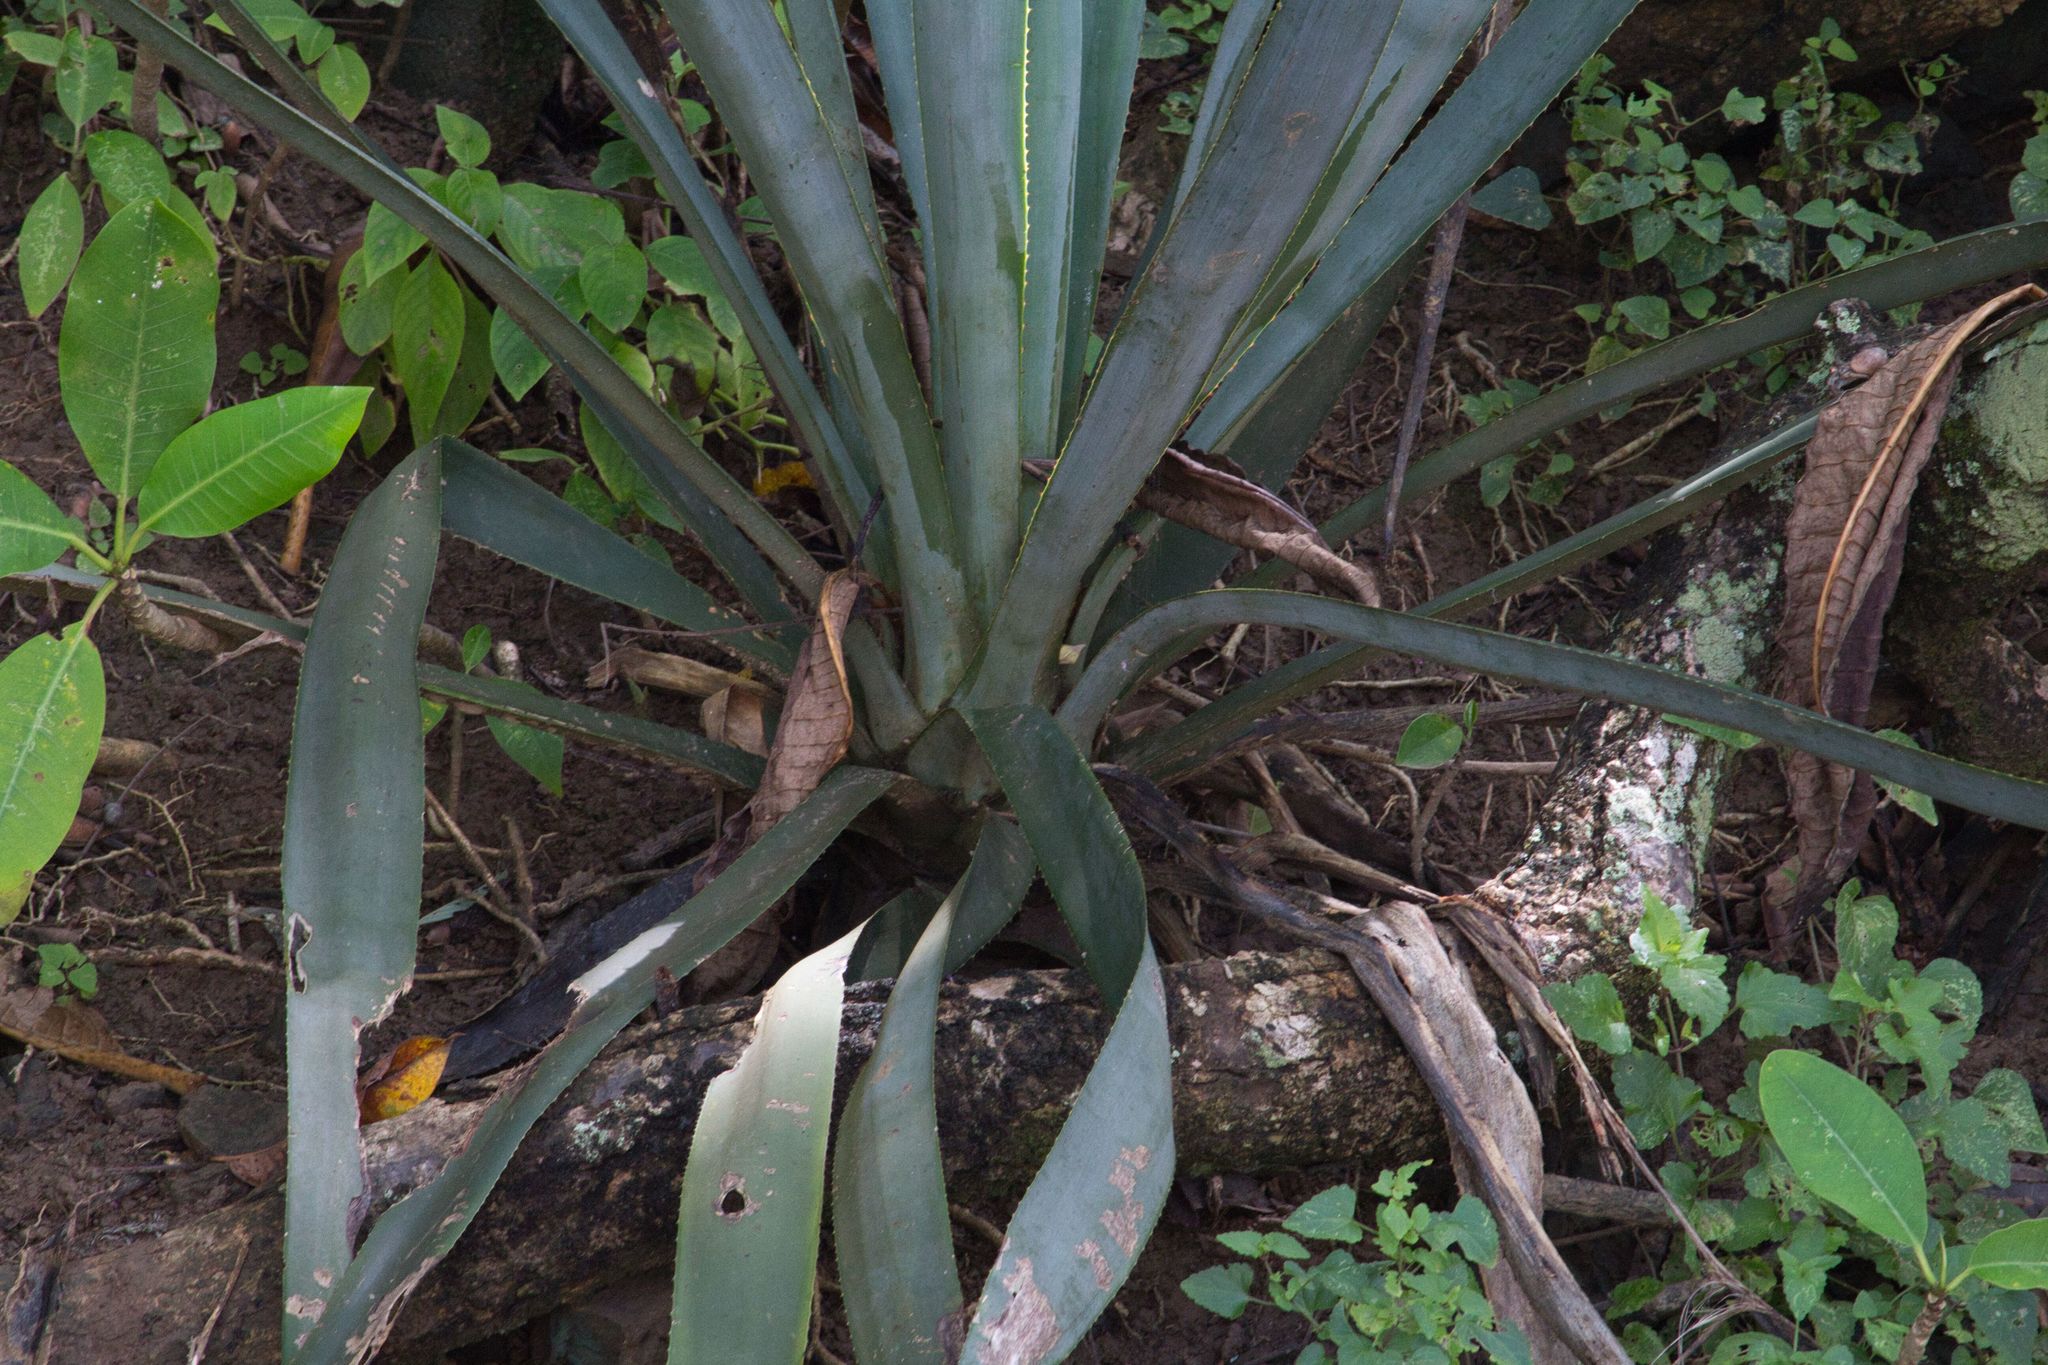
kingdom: Plantae
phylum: Tracheophyta
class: Liliopsida
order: Asparagales
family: Asparagaceae
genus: Agave
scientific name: Agave angustifolia
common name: Mescal agave
